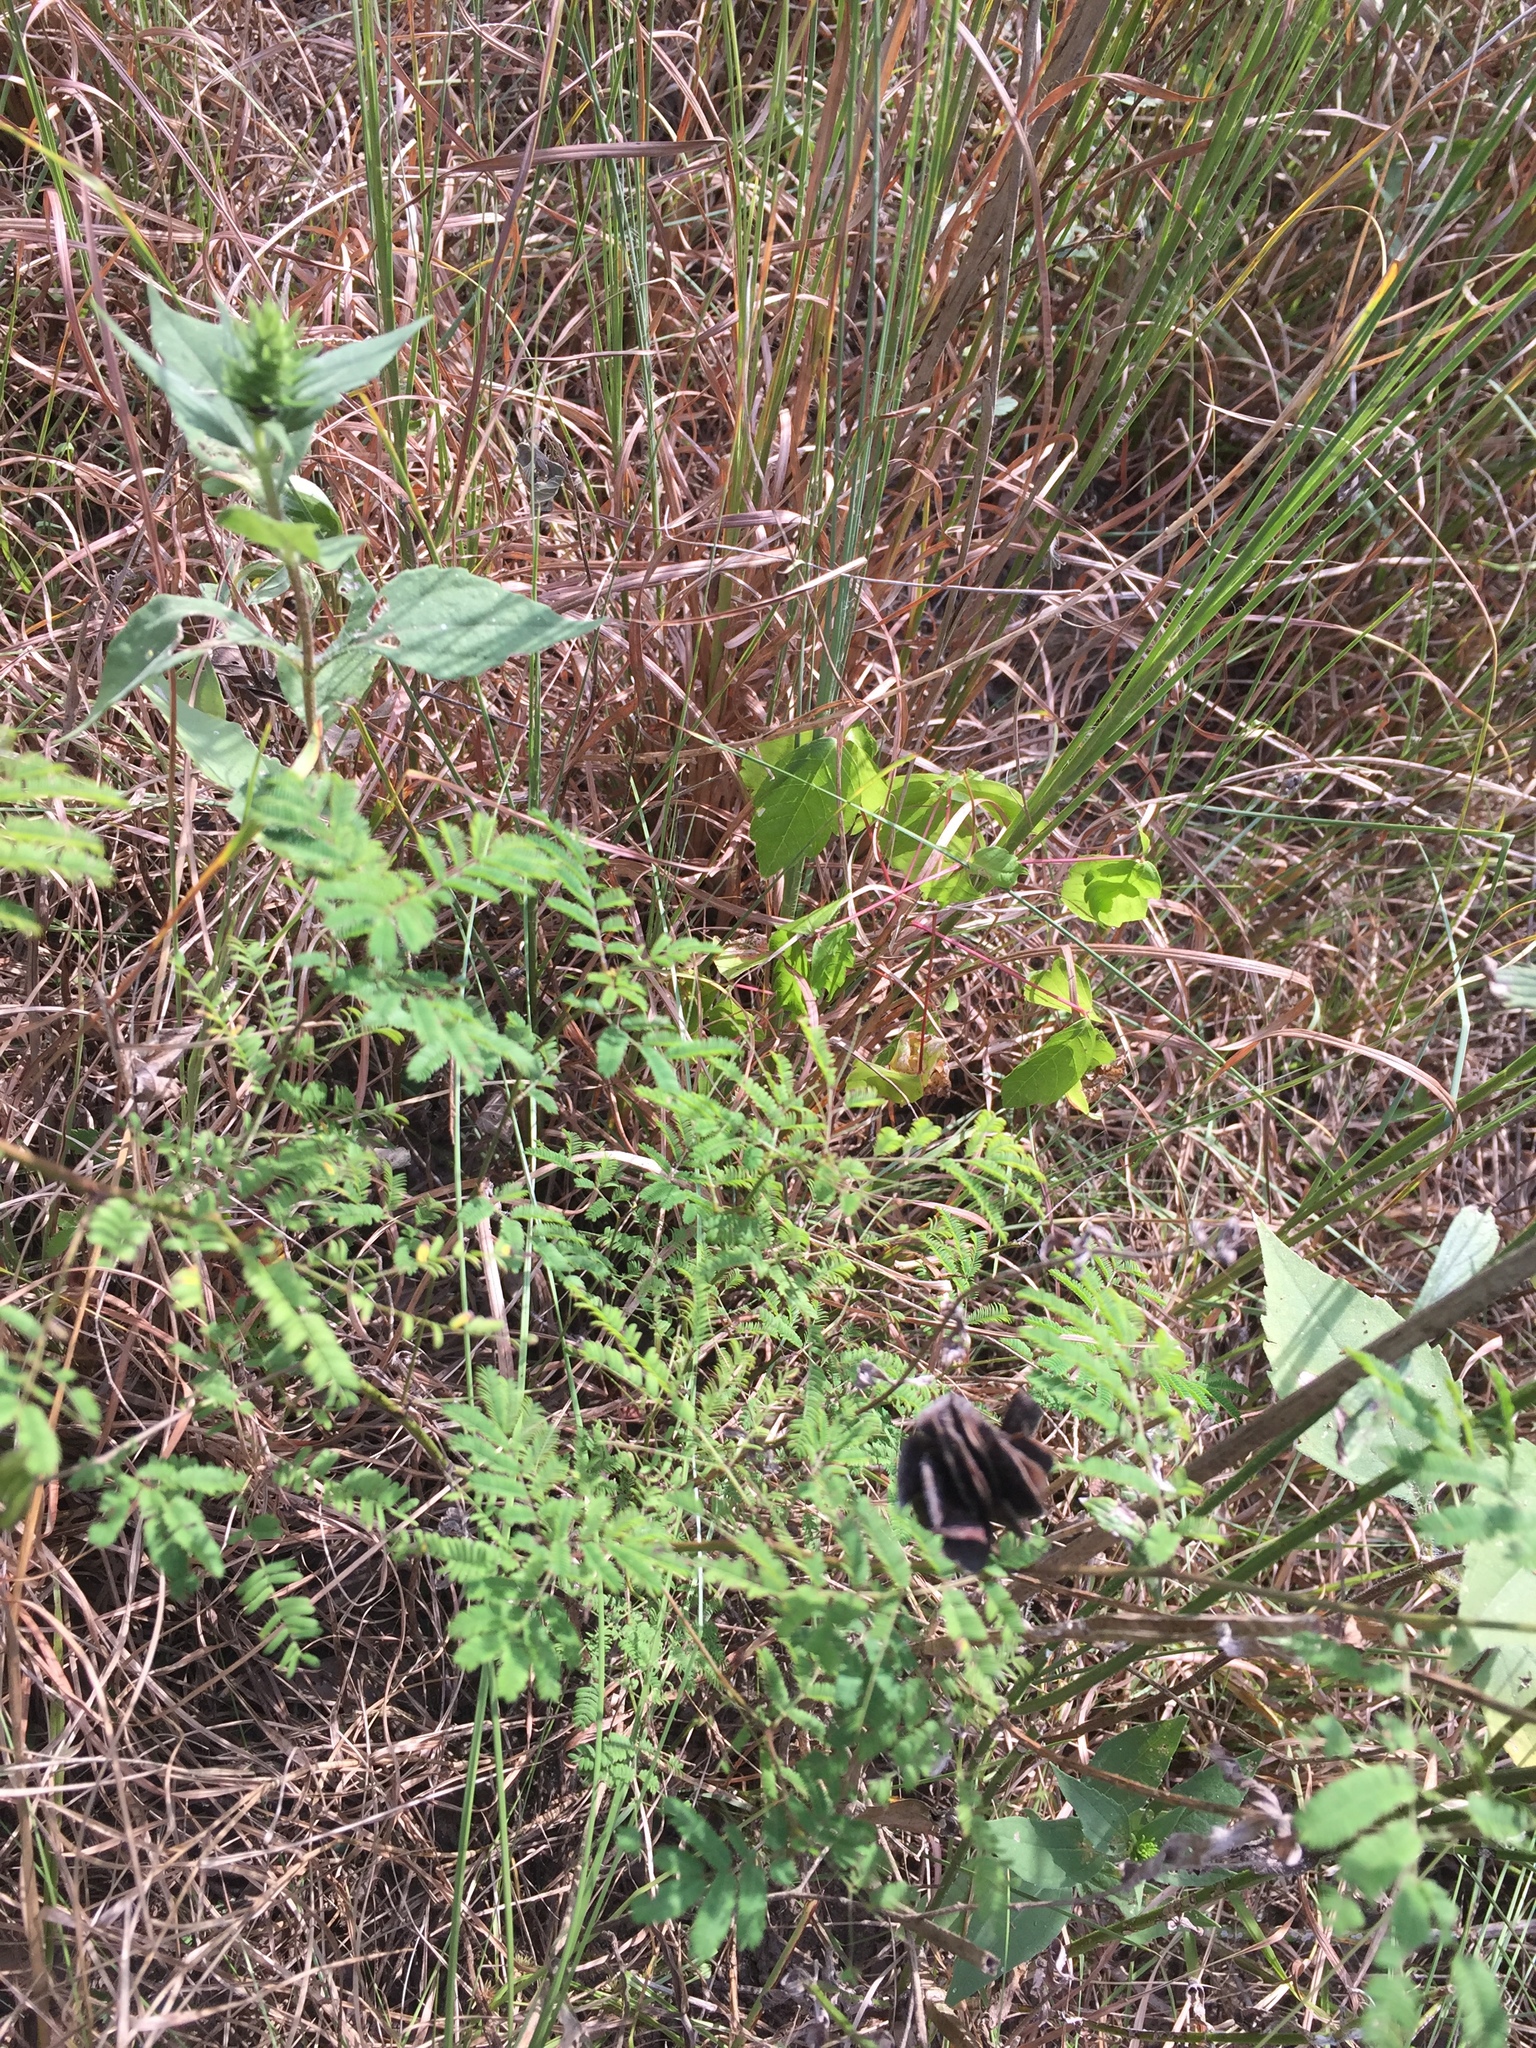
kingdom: Plantae
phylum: Tracheophyta
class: Magnoliopsida
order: Fabales
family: Fabaceae
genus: Desmanthus
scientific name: Desmanthus illinoensis
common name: Illinois bundle-flower
